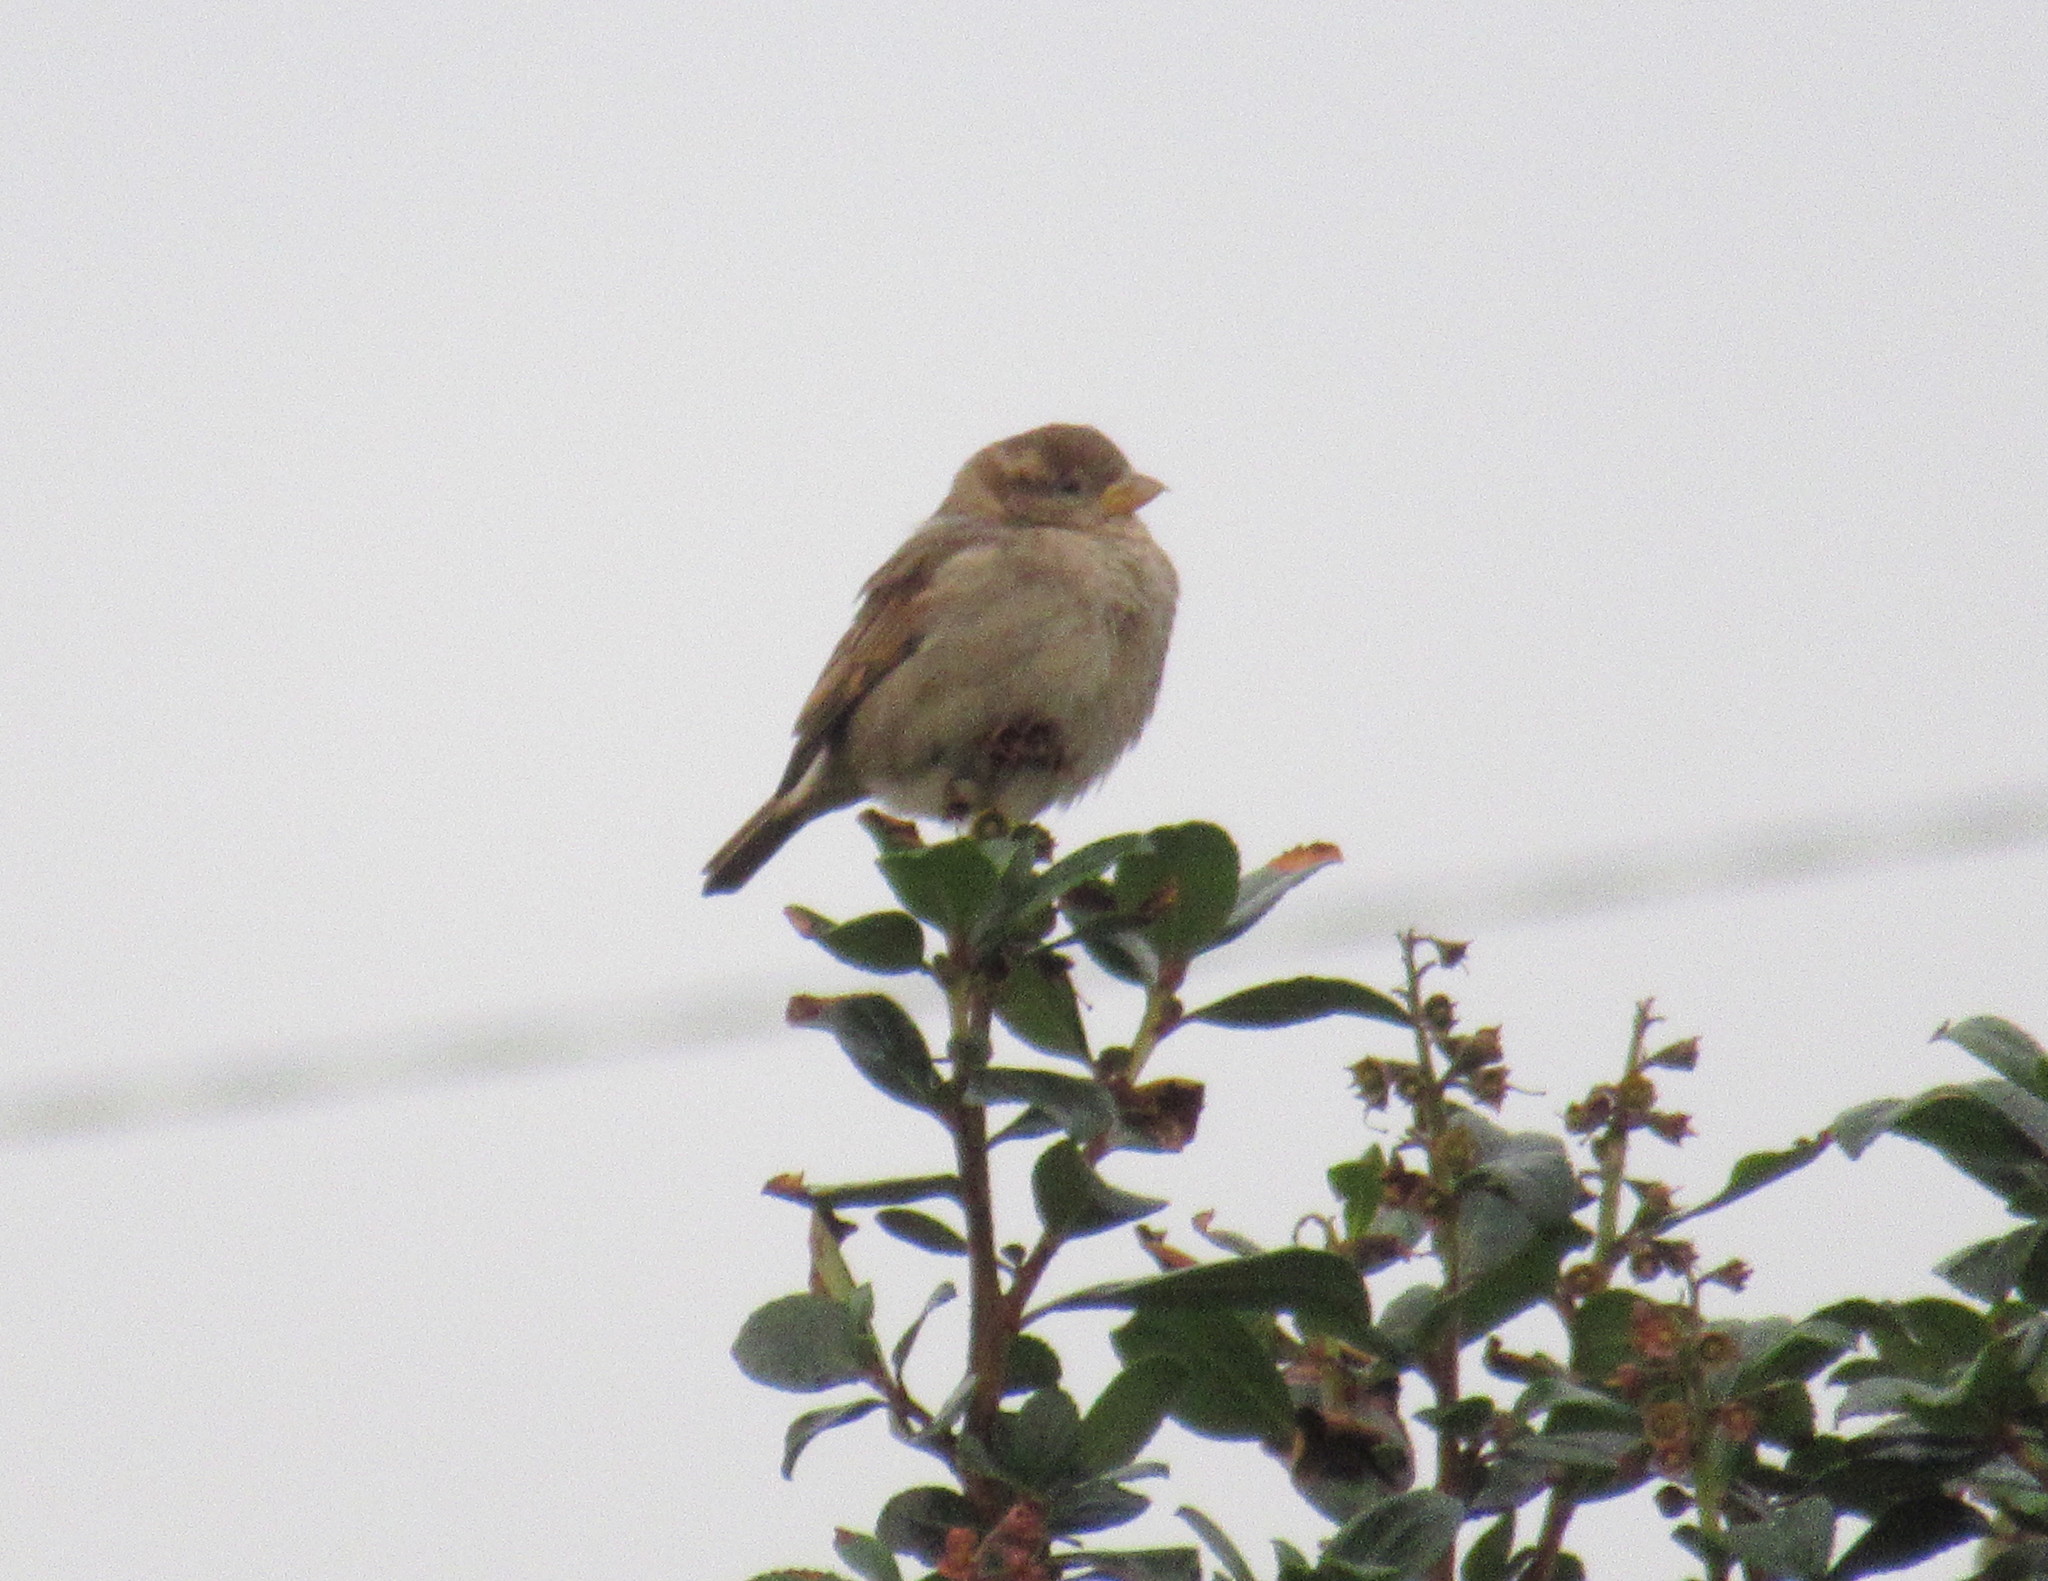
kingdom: Animalia
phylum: Chordata
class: Aves
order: Passeriformes
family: Passeridae
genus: Passer
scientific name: Passer domesticus
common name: House sparrow
